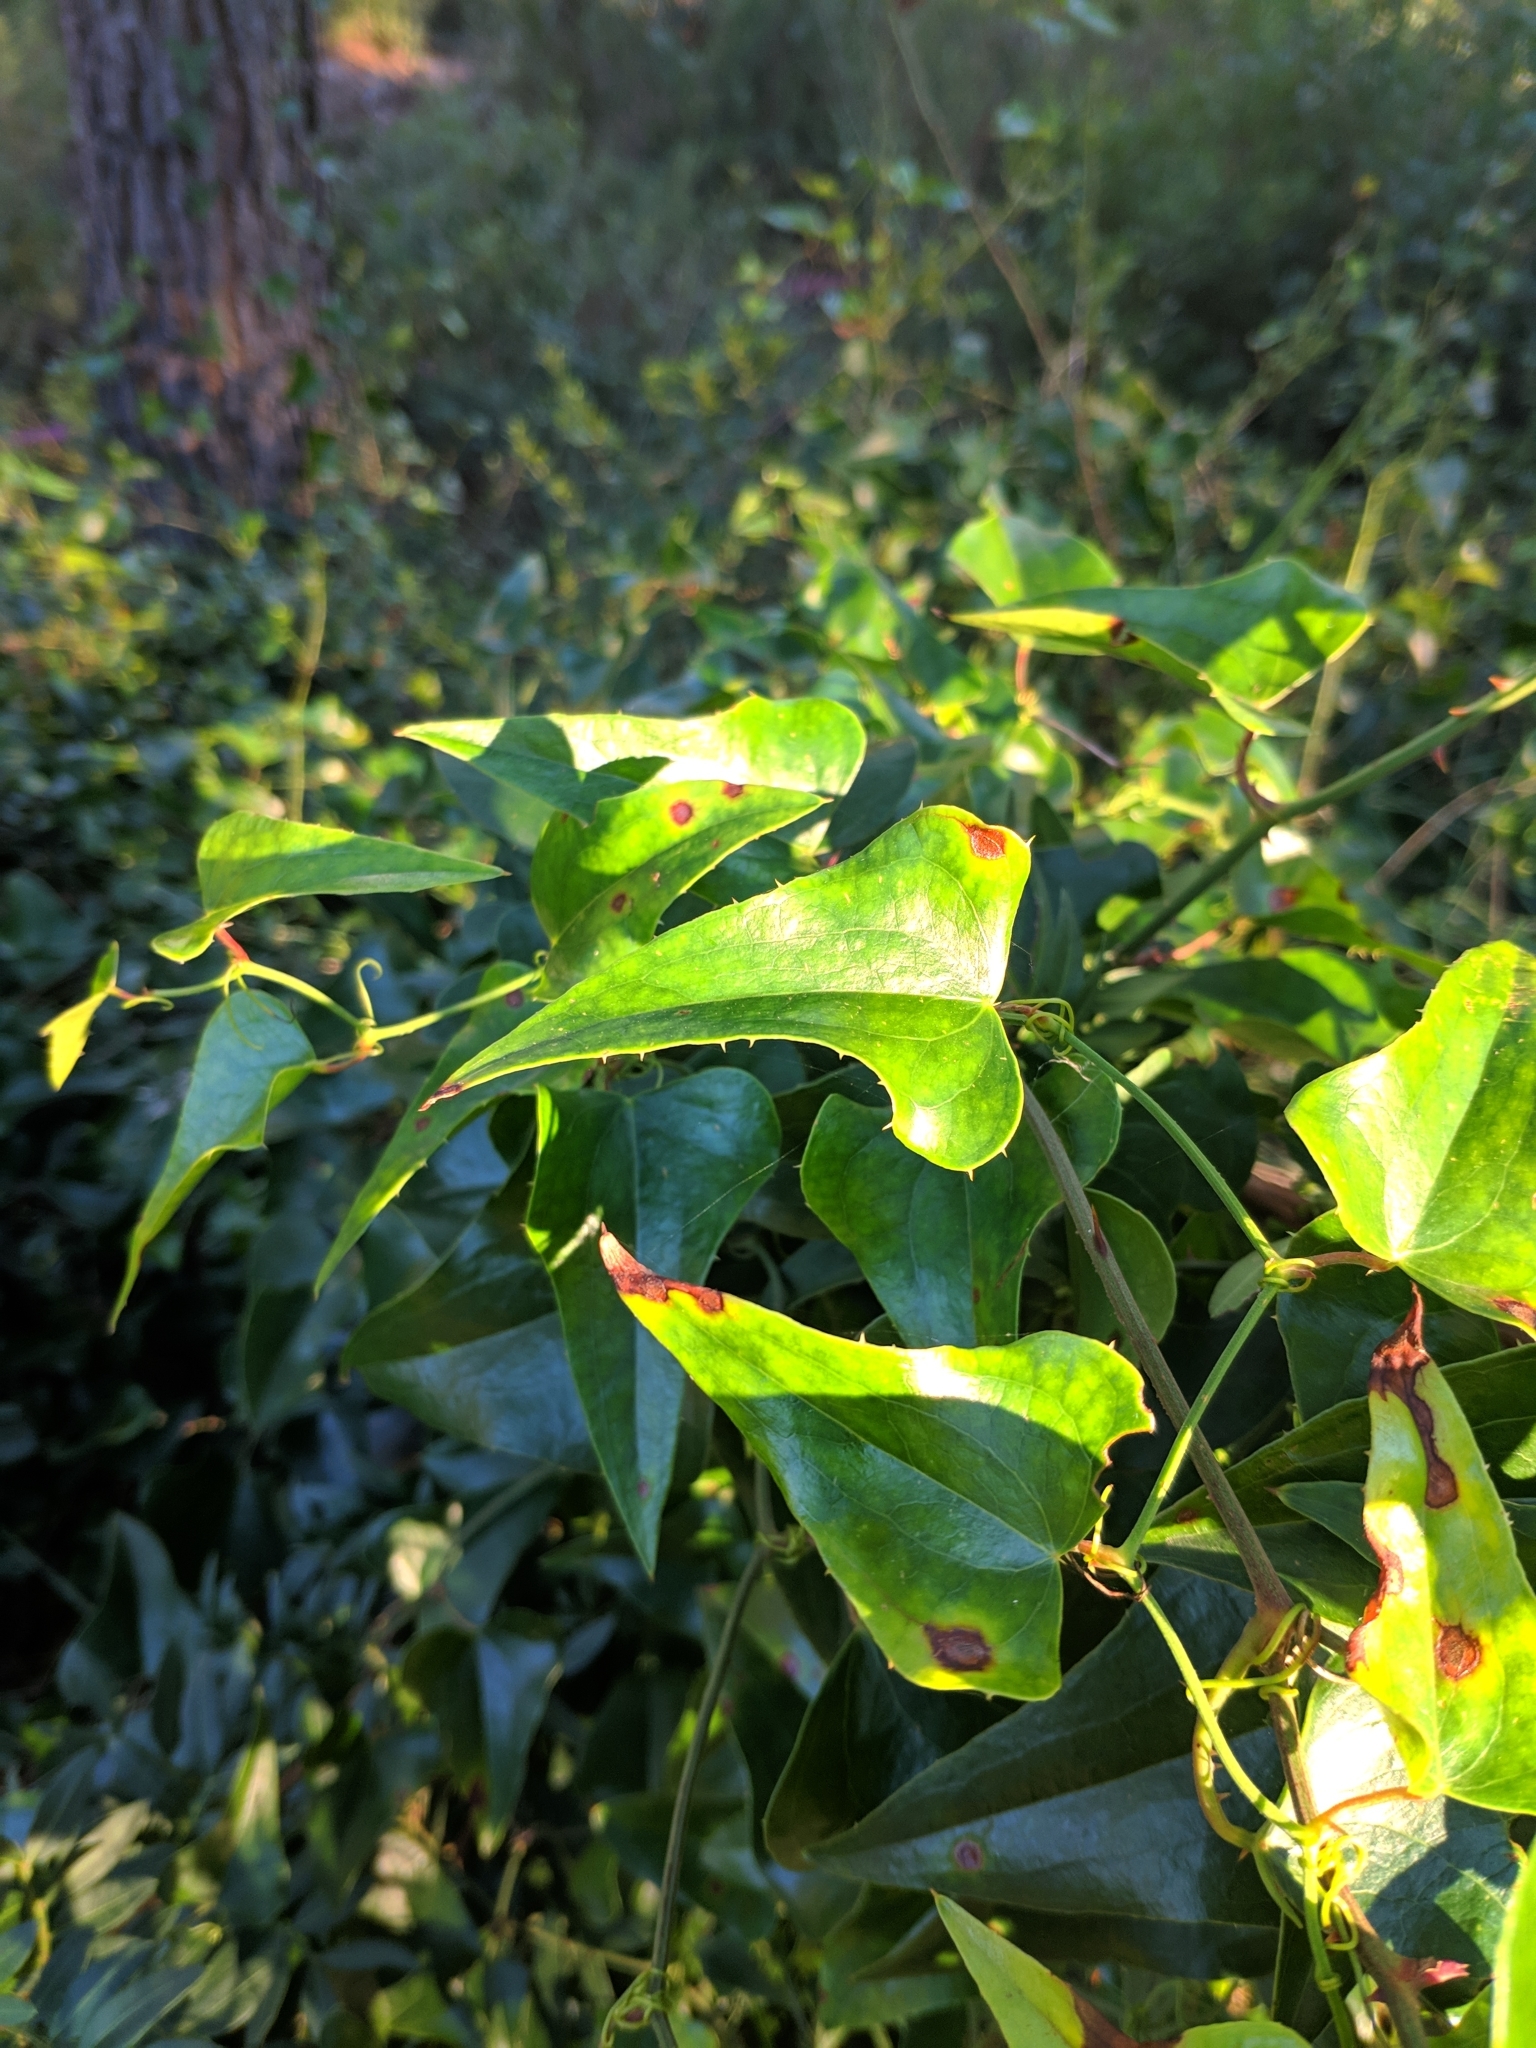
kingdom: Plantae
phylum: Tracheophyta
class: Liliopsida
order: Liliales
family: Smilacaceae
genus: Smilax
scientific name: Smilax aspera
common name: Common smilax
